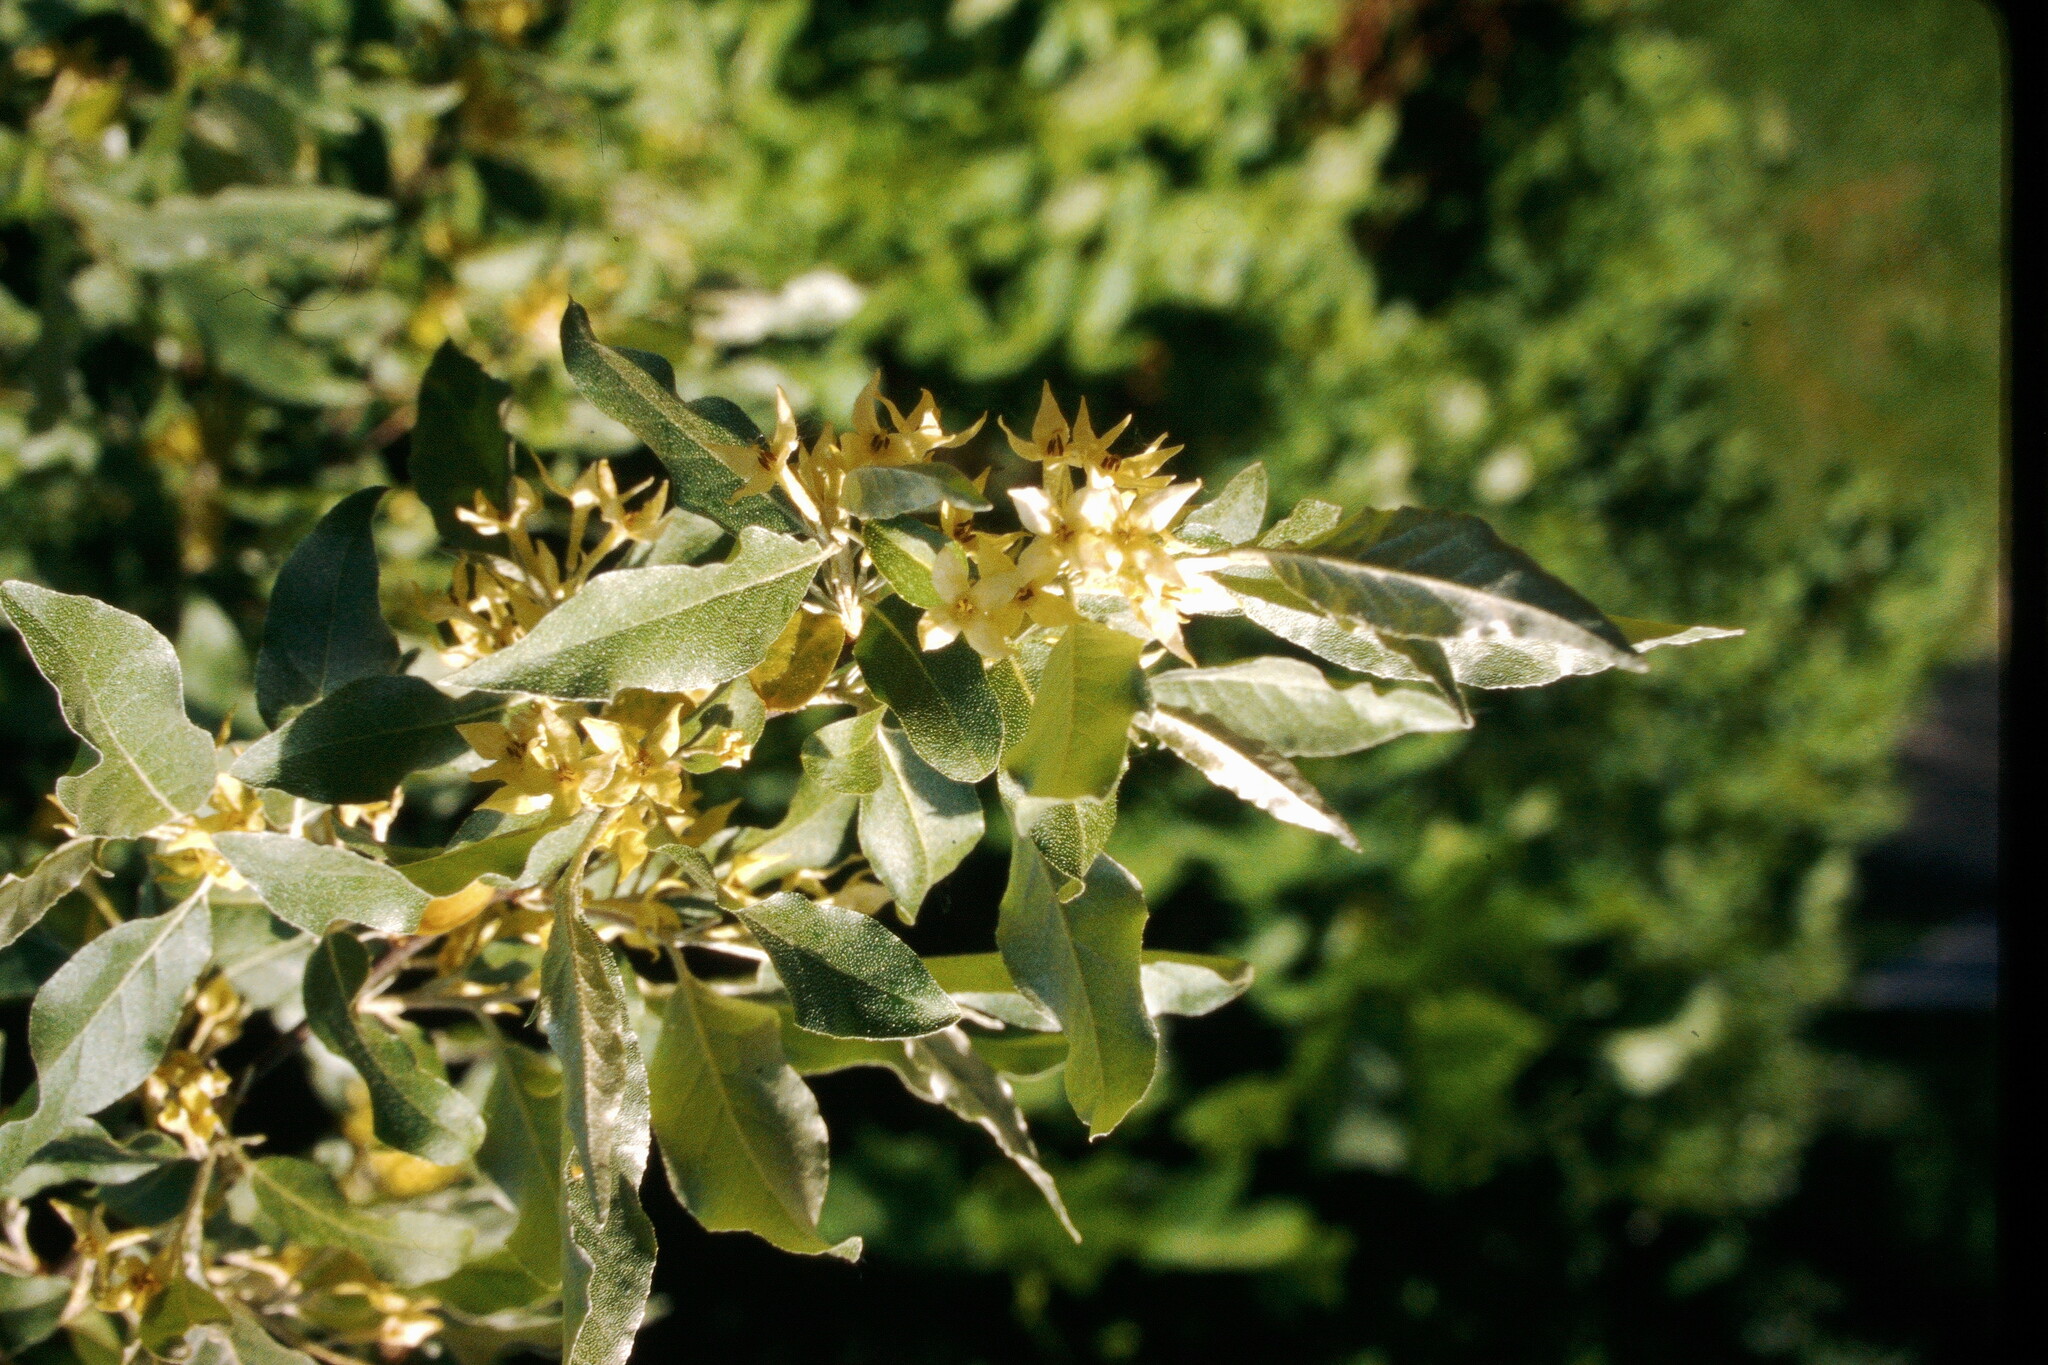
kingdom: Plantae
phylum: Tracheophyta
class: Magnoliopsida
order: Rosales
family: Elaeagnaceae
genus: Elaeagnus
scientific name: Elaeagnus umbellata
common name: Autumn olive
